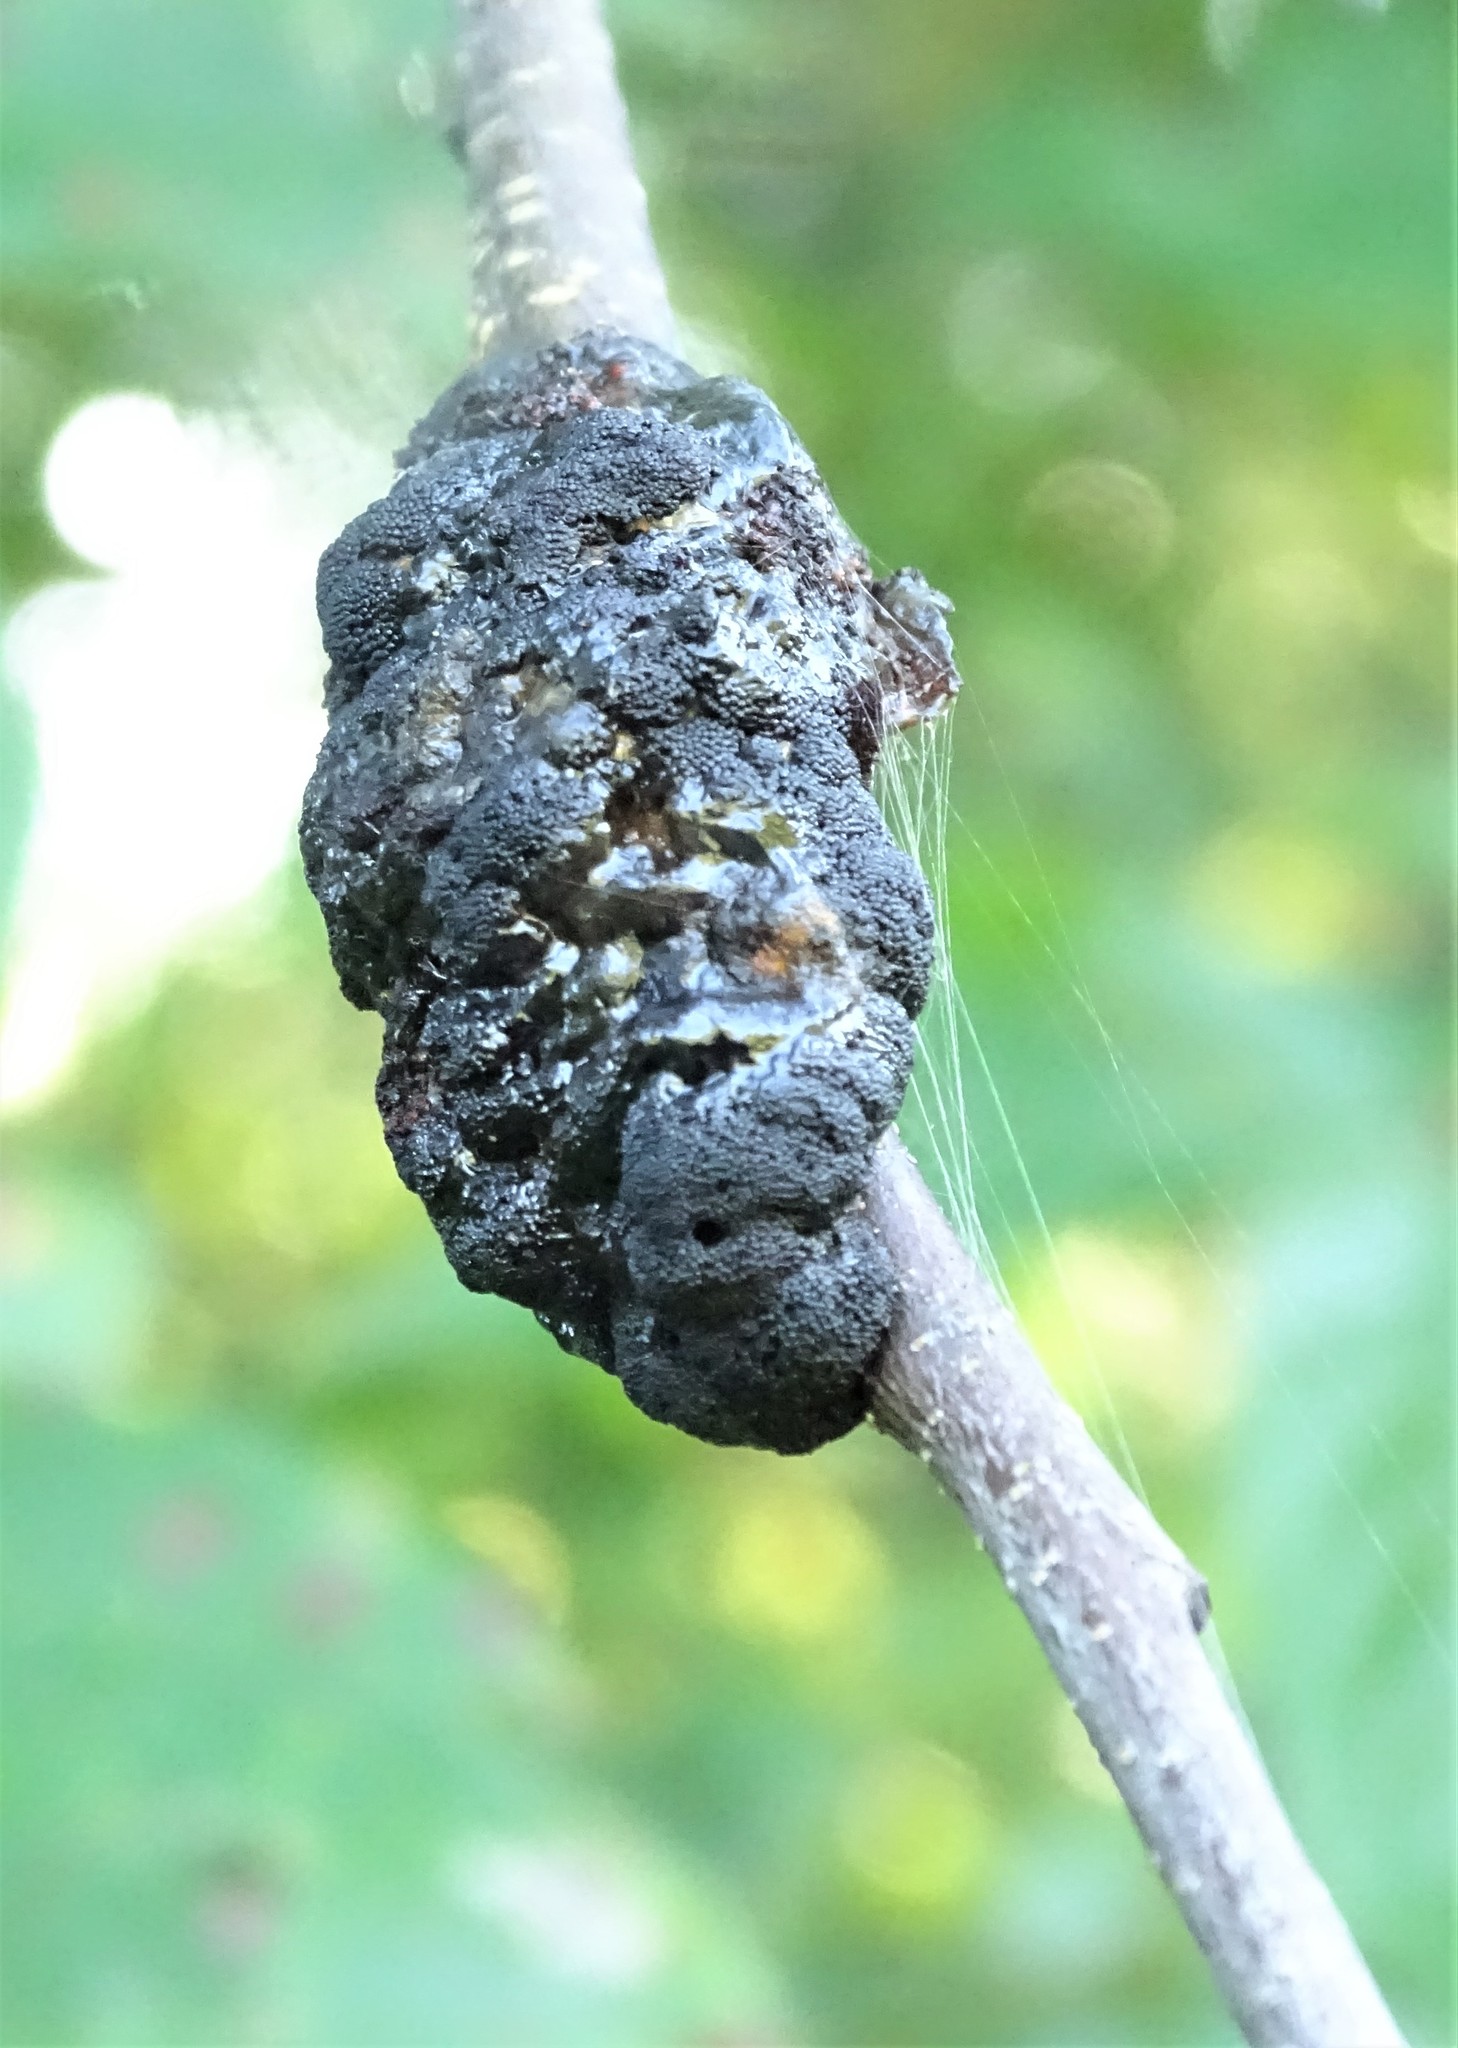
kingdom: Fungi
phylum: Ascomycota
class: Dothideomycetes
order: Venturiales
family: Venturiaceae
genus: Apiosporina
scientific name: Apiosporina morbosa
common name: Black knot
